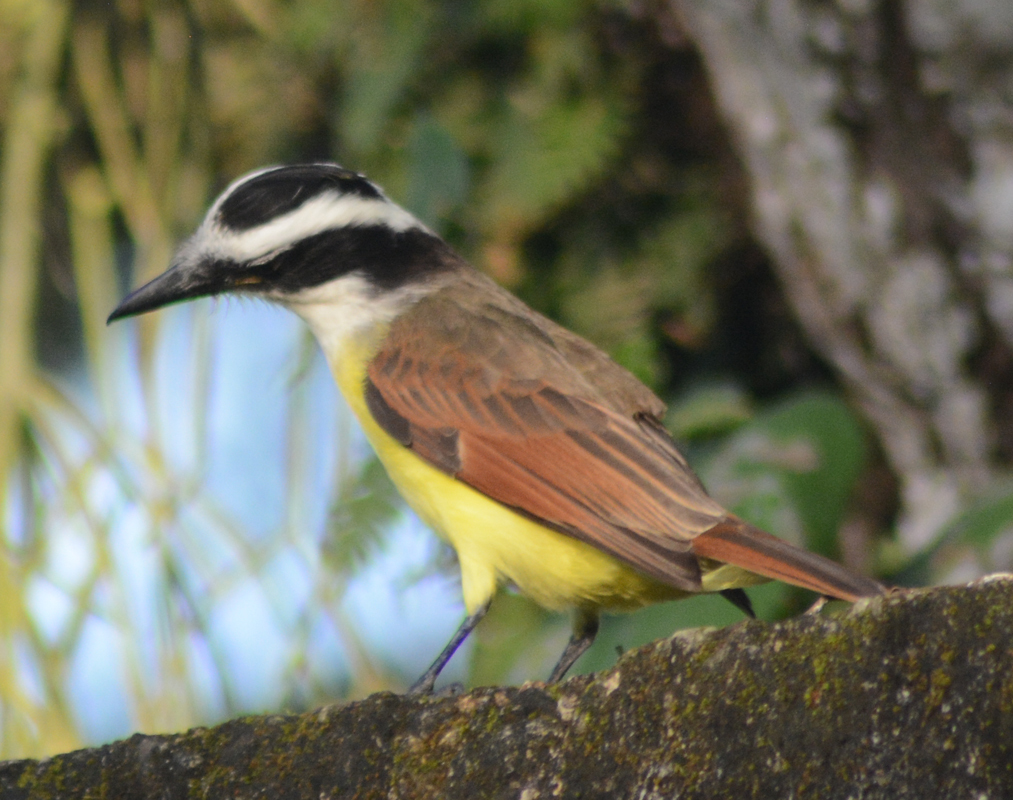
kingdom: Animalia
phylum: Chordata
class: Aves
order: Passeriformes
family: Tyrannidae
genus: Pitangus
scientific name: Pitangus sulphuratus
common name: Great kiskadee
